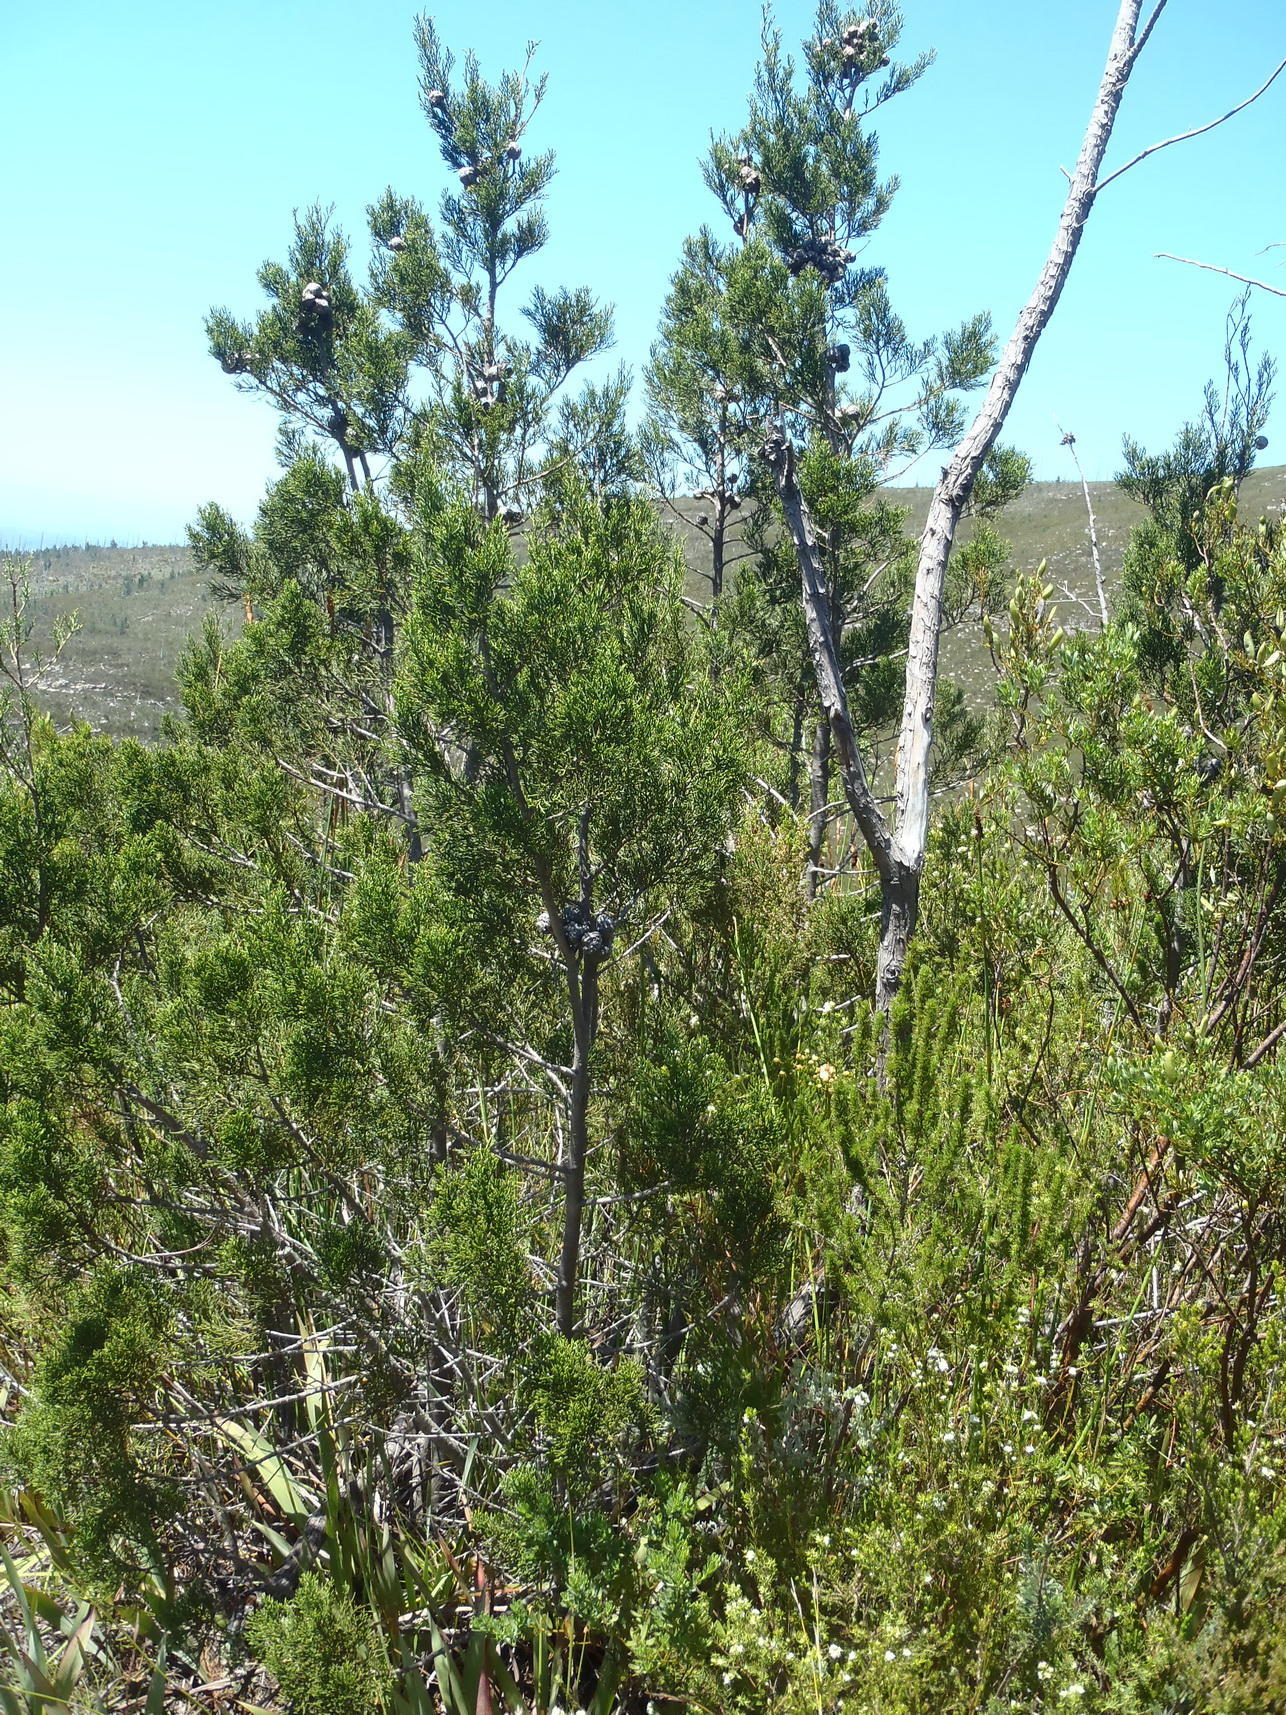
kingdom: Plantae
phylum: Tracheophyta
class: Pinopsida
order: Pinales
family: Cupressaceae
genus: Widdringtonia
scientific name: Widdringtonia nodiflora
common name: Cape cypress
